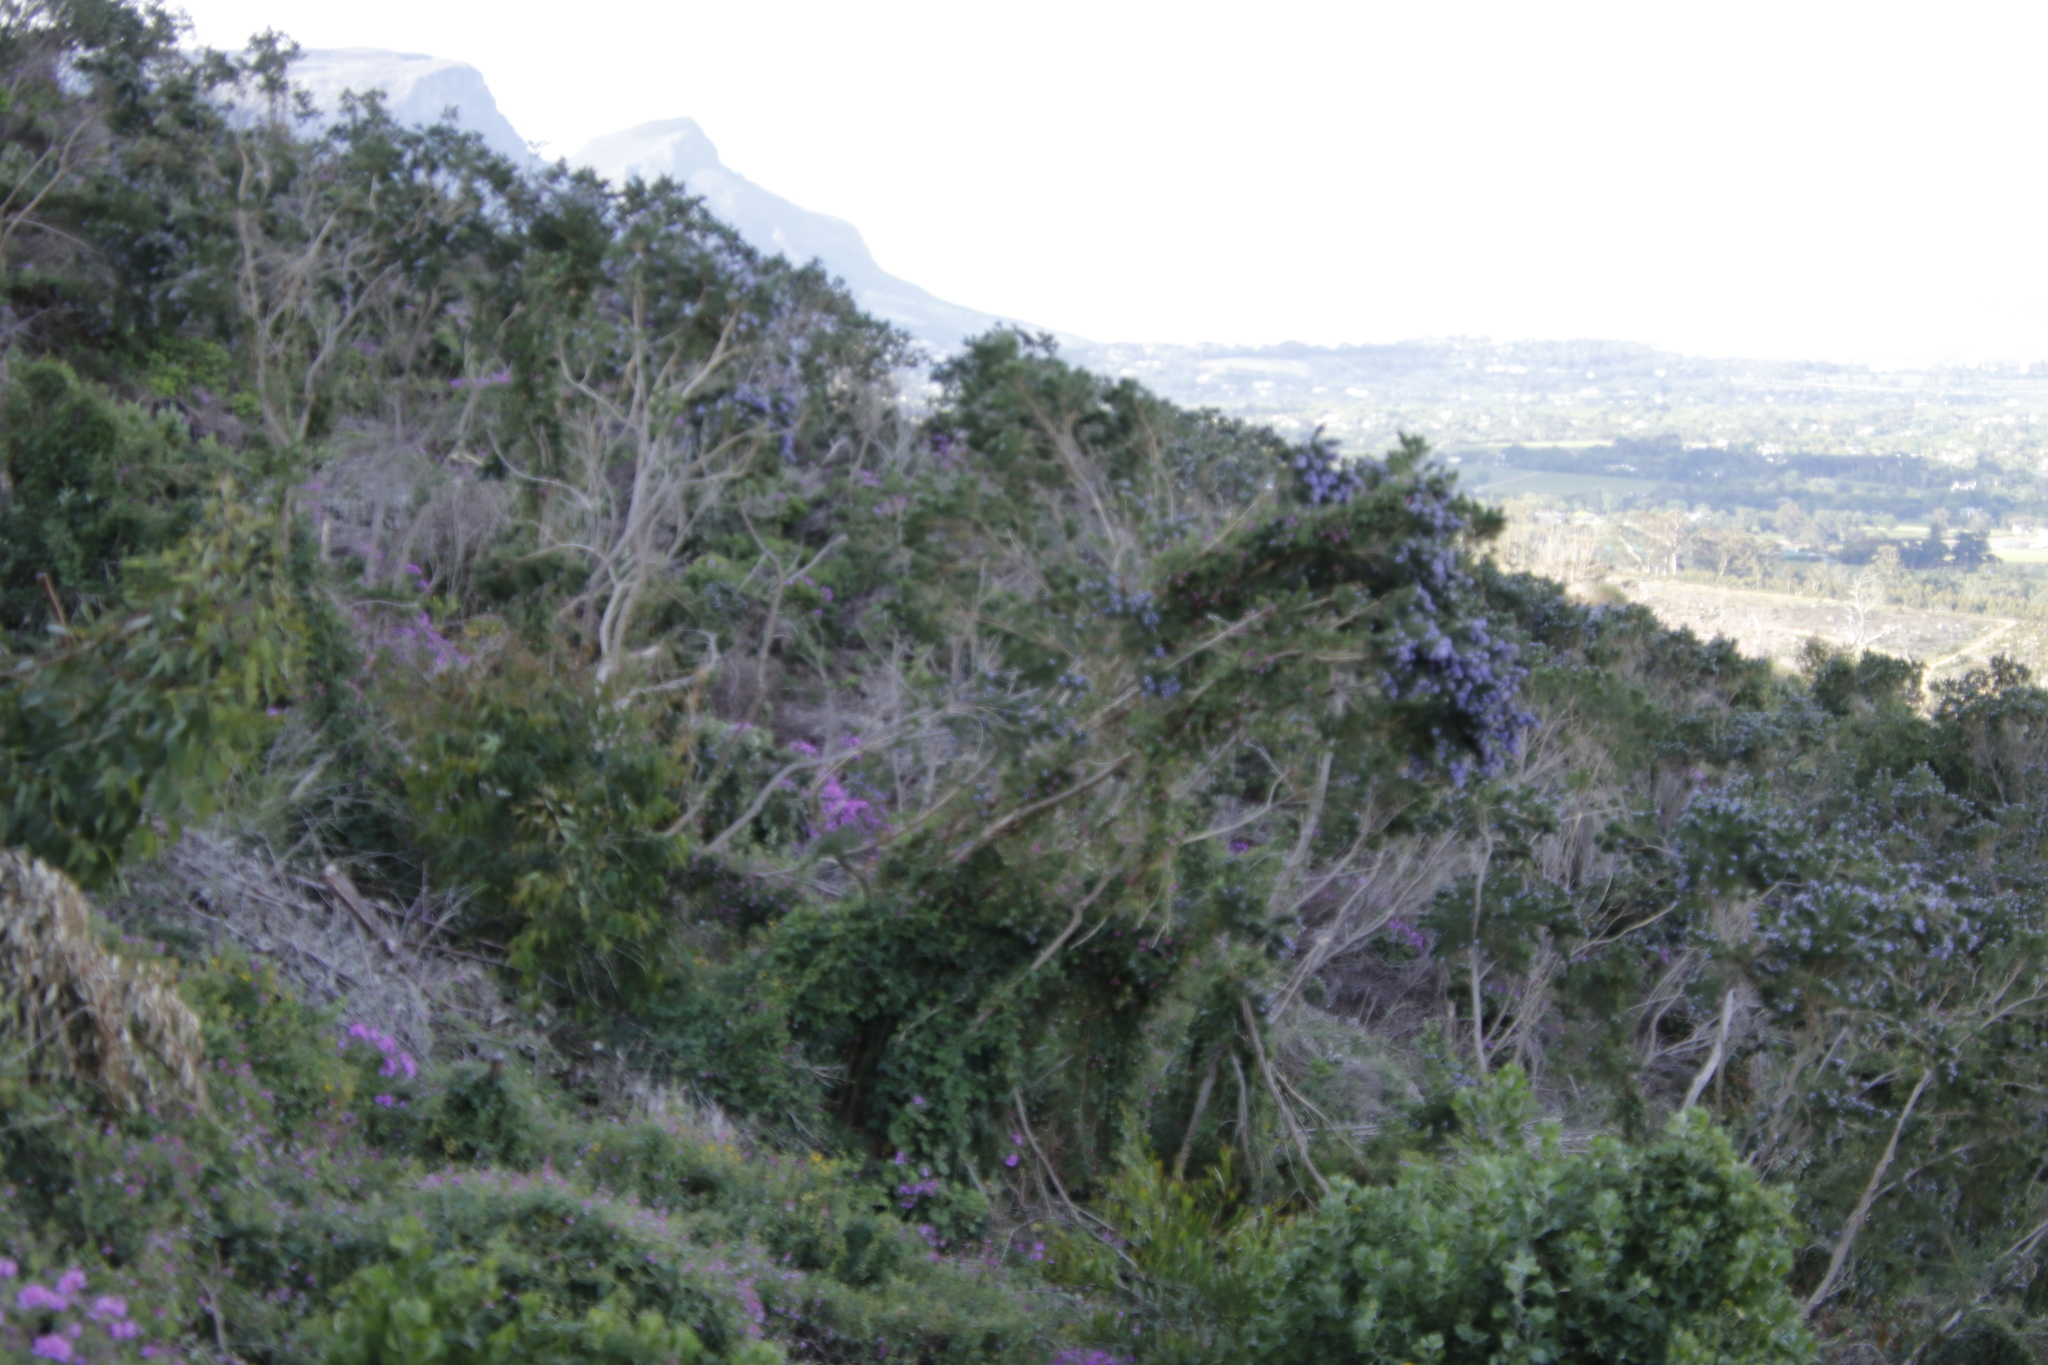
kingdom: Plantae
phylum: Tracheophyta
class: Magnoliopsida
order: Fabales
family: Fabaceae
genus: Psoralea
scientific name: Psoralea pinnata
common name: African scurfpea
